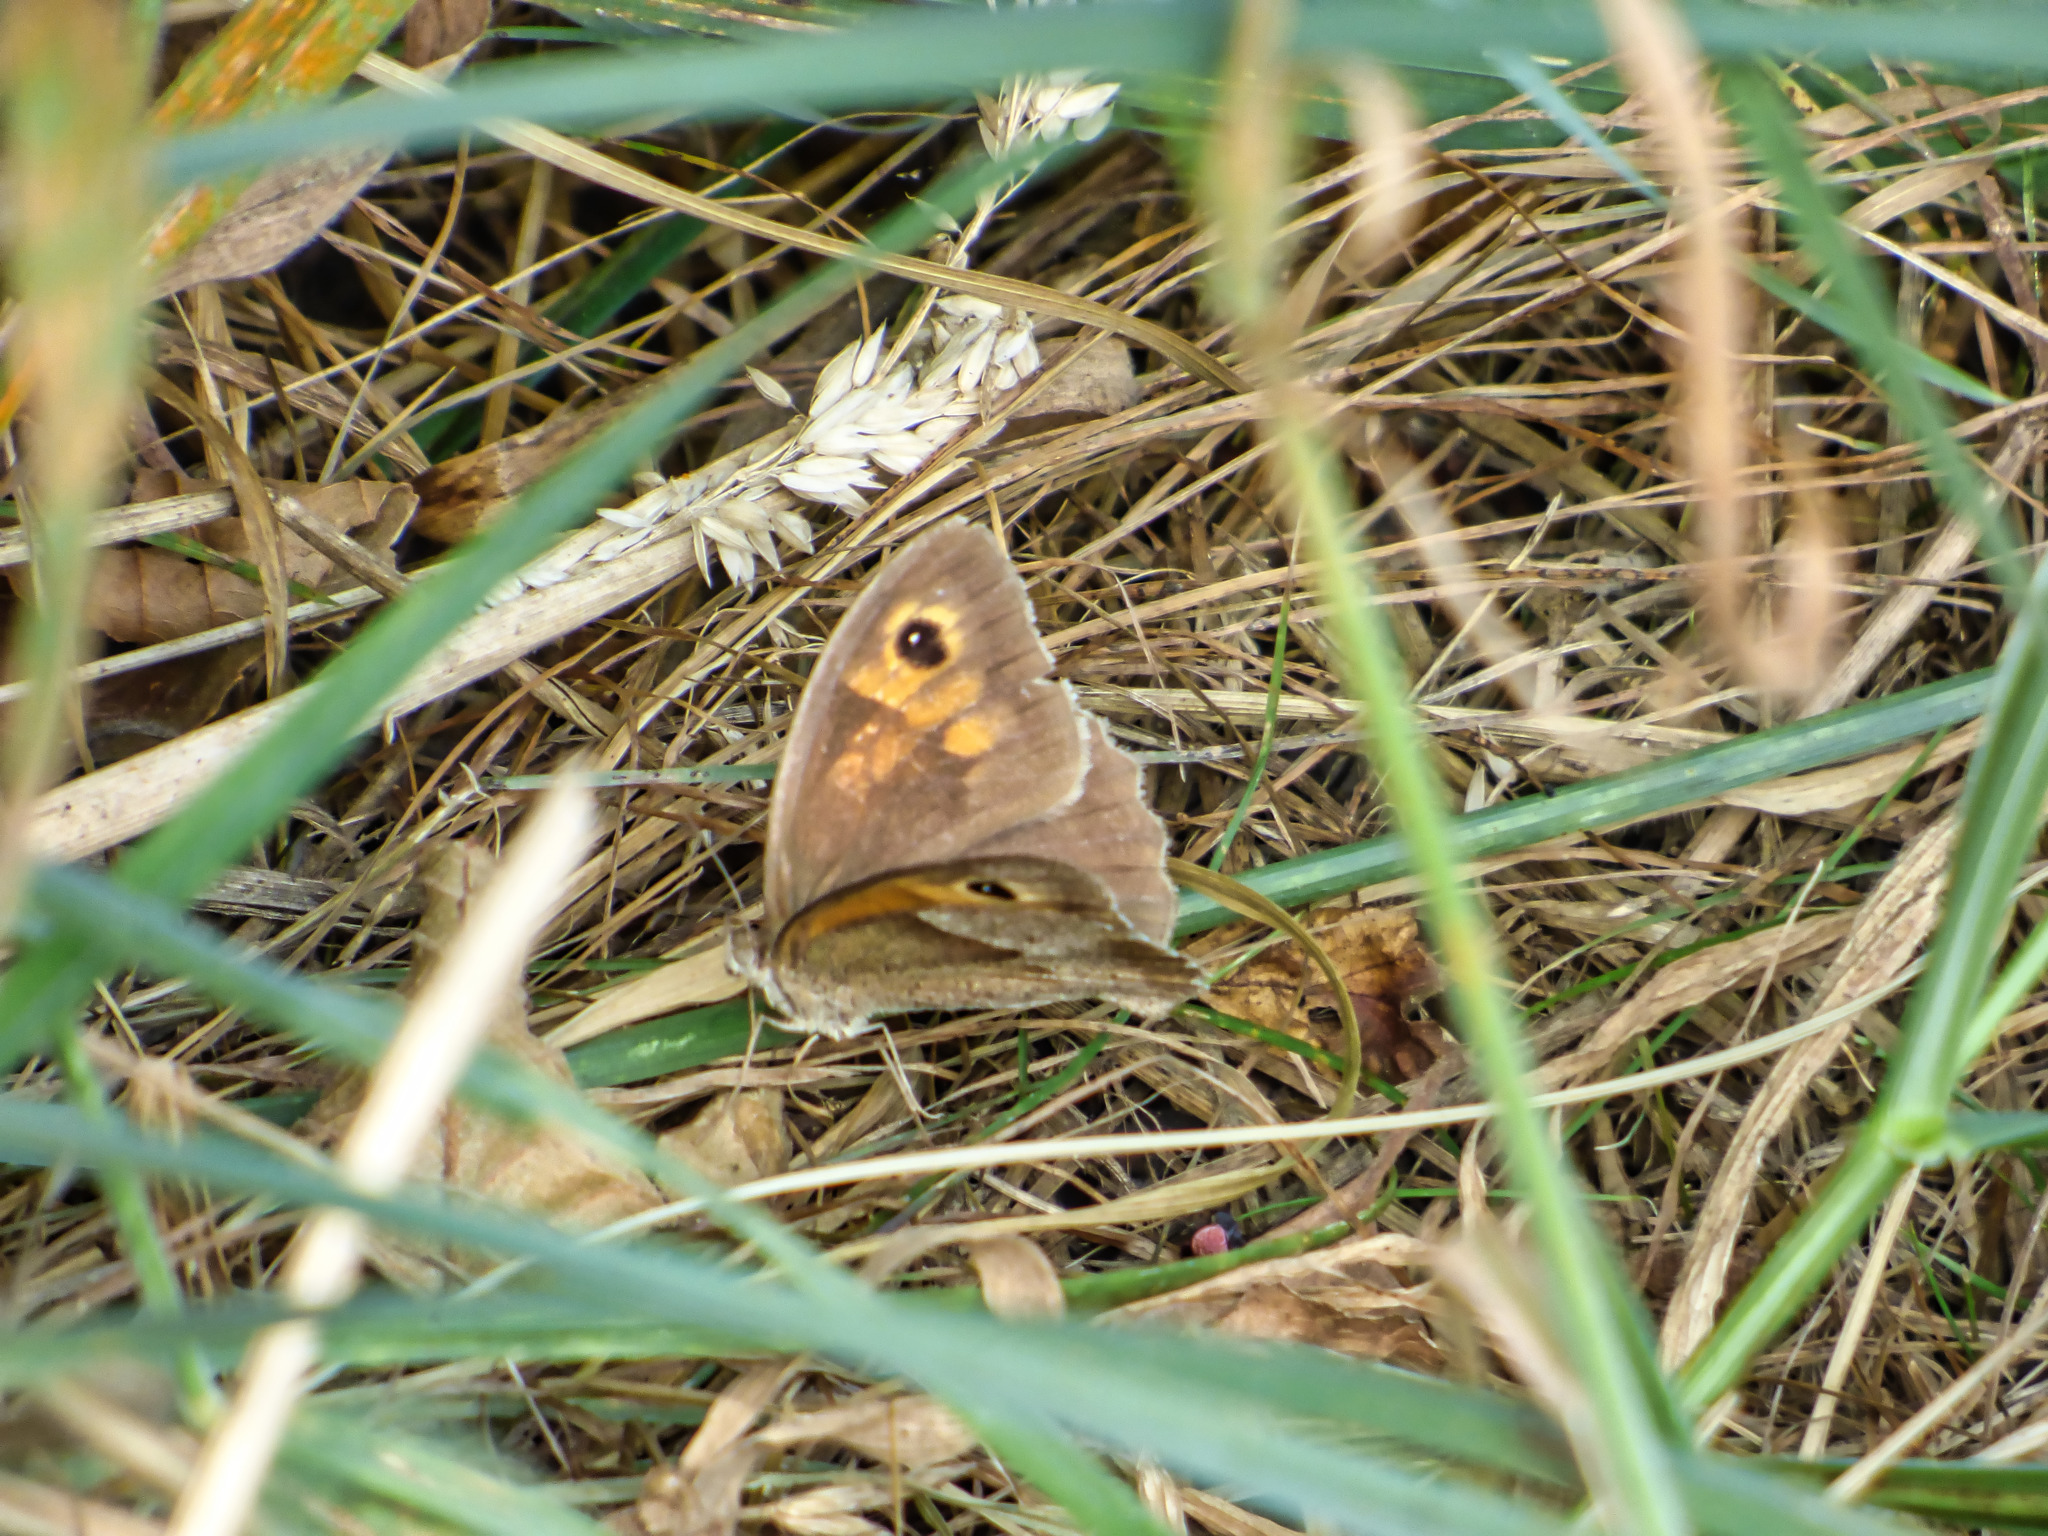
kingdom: Animalia
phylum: Arthropoda
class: Insecta
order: Lepidoptera
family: Nymphalidae
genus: Maniola
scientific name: Maniola jurtina
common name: Meadow brown
